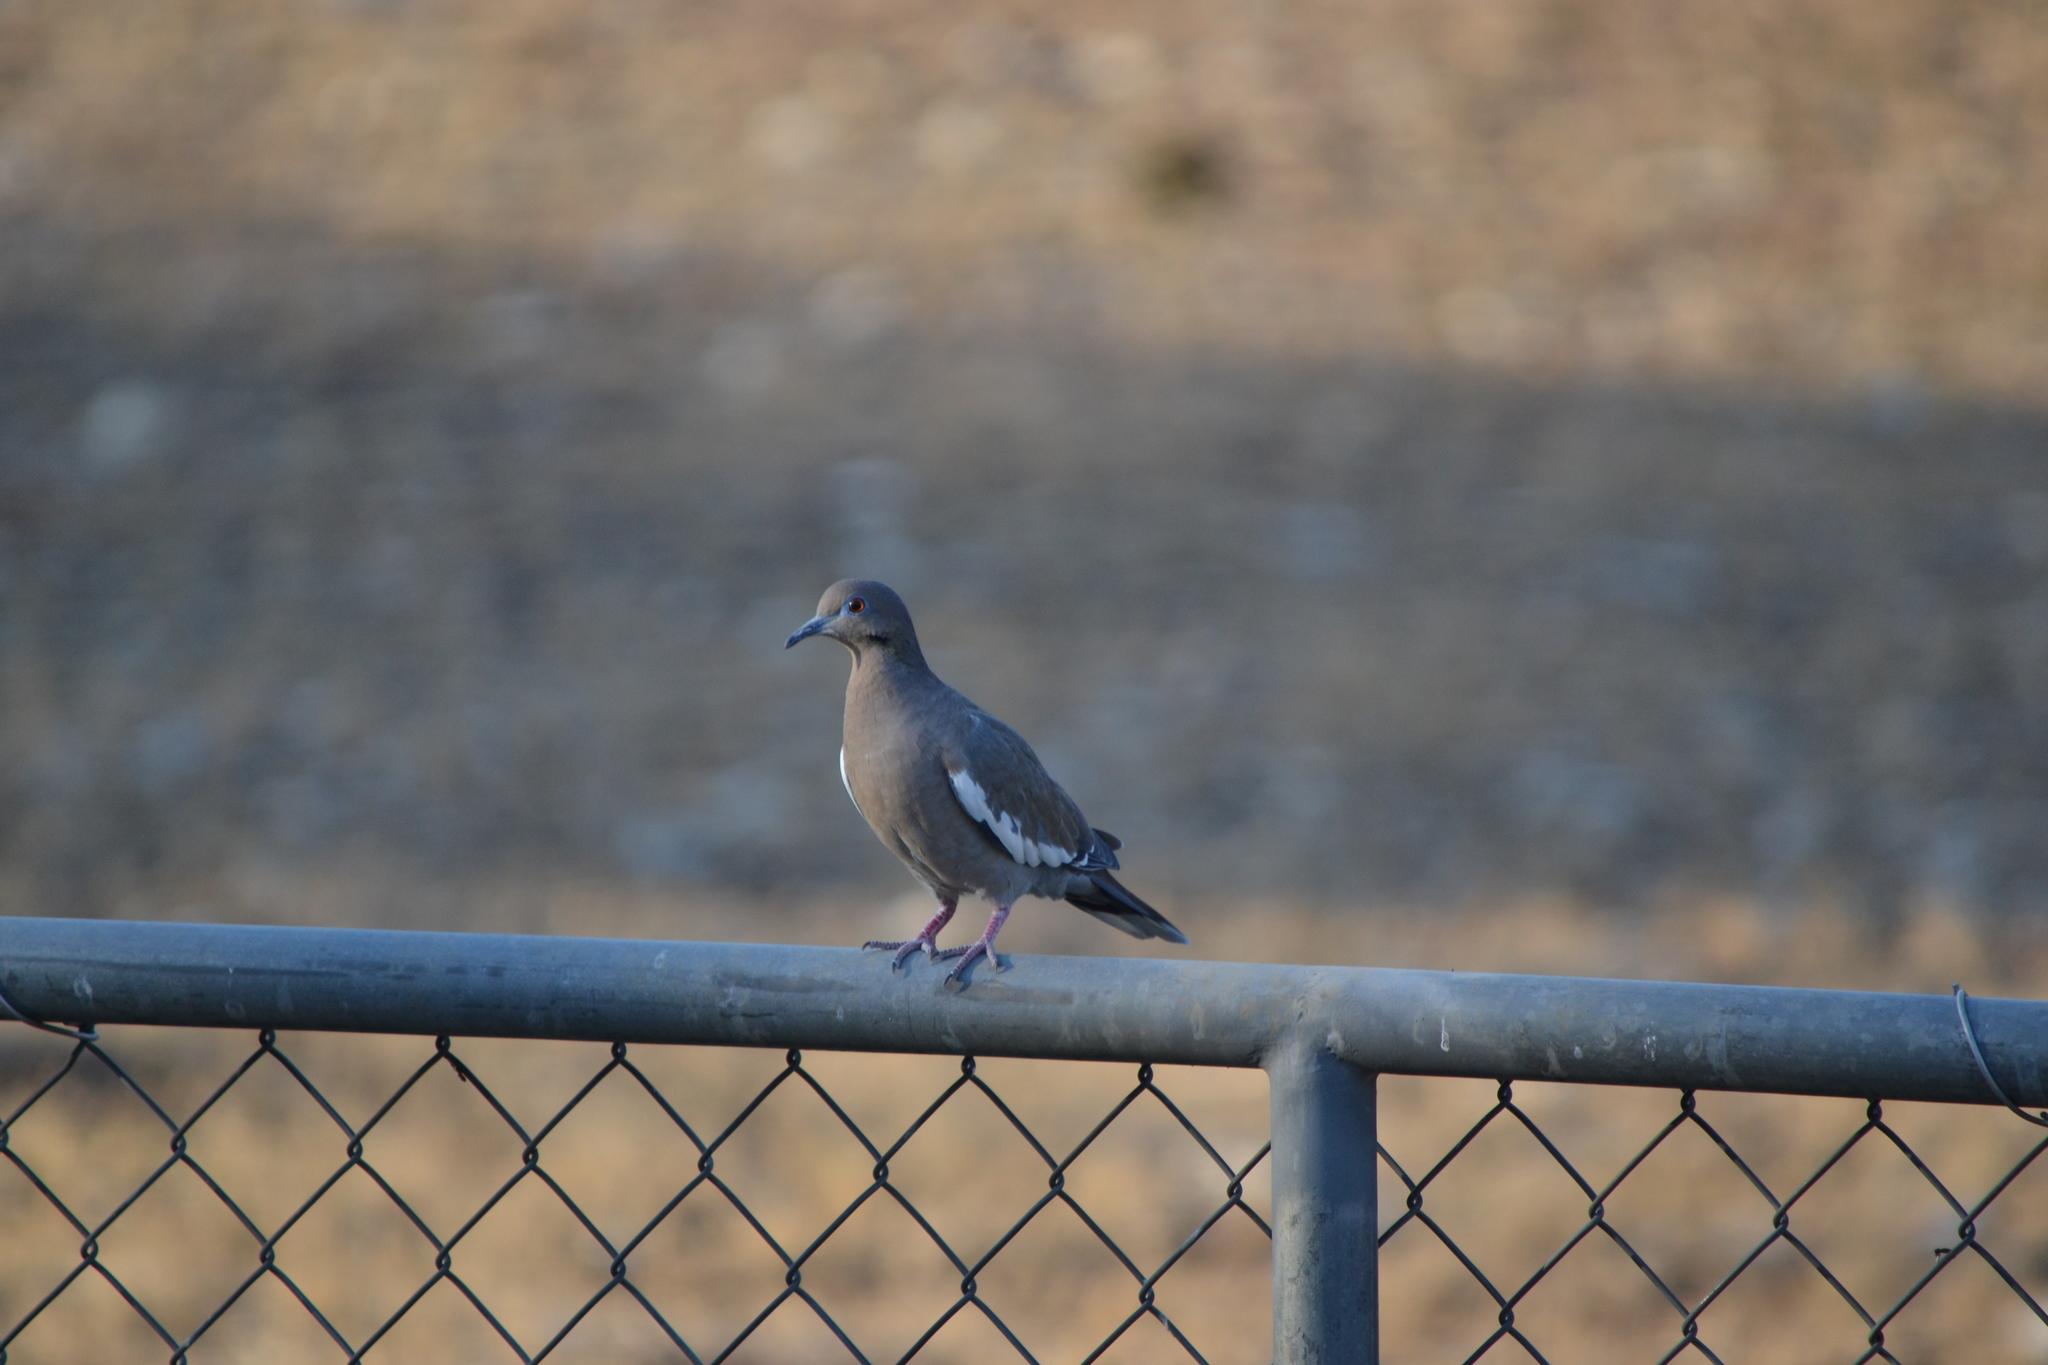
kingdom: Animalia
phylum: Chordata
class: Aves
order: Columbiformes
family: Columbidae
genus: Zenaida
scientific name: Zenaida asiatica
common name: White-winged dove
